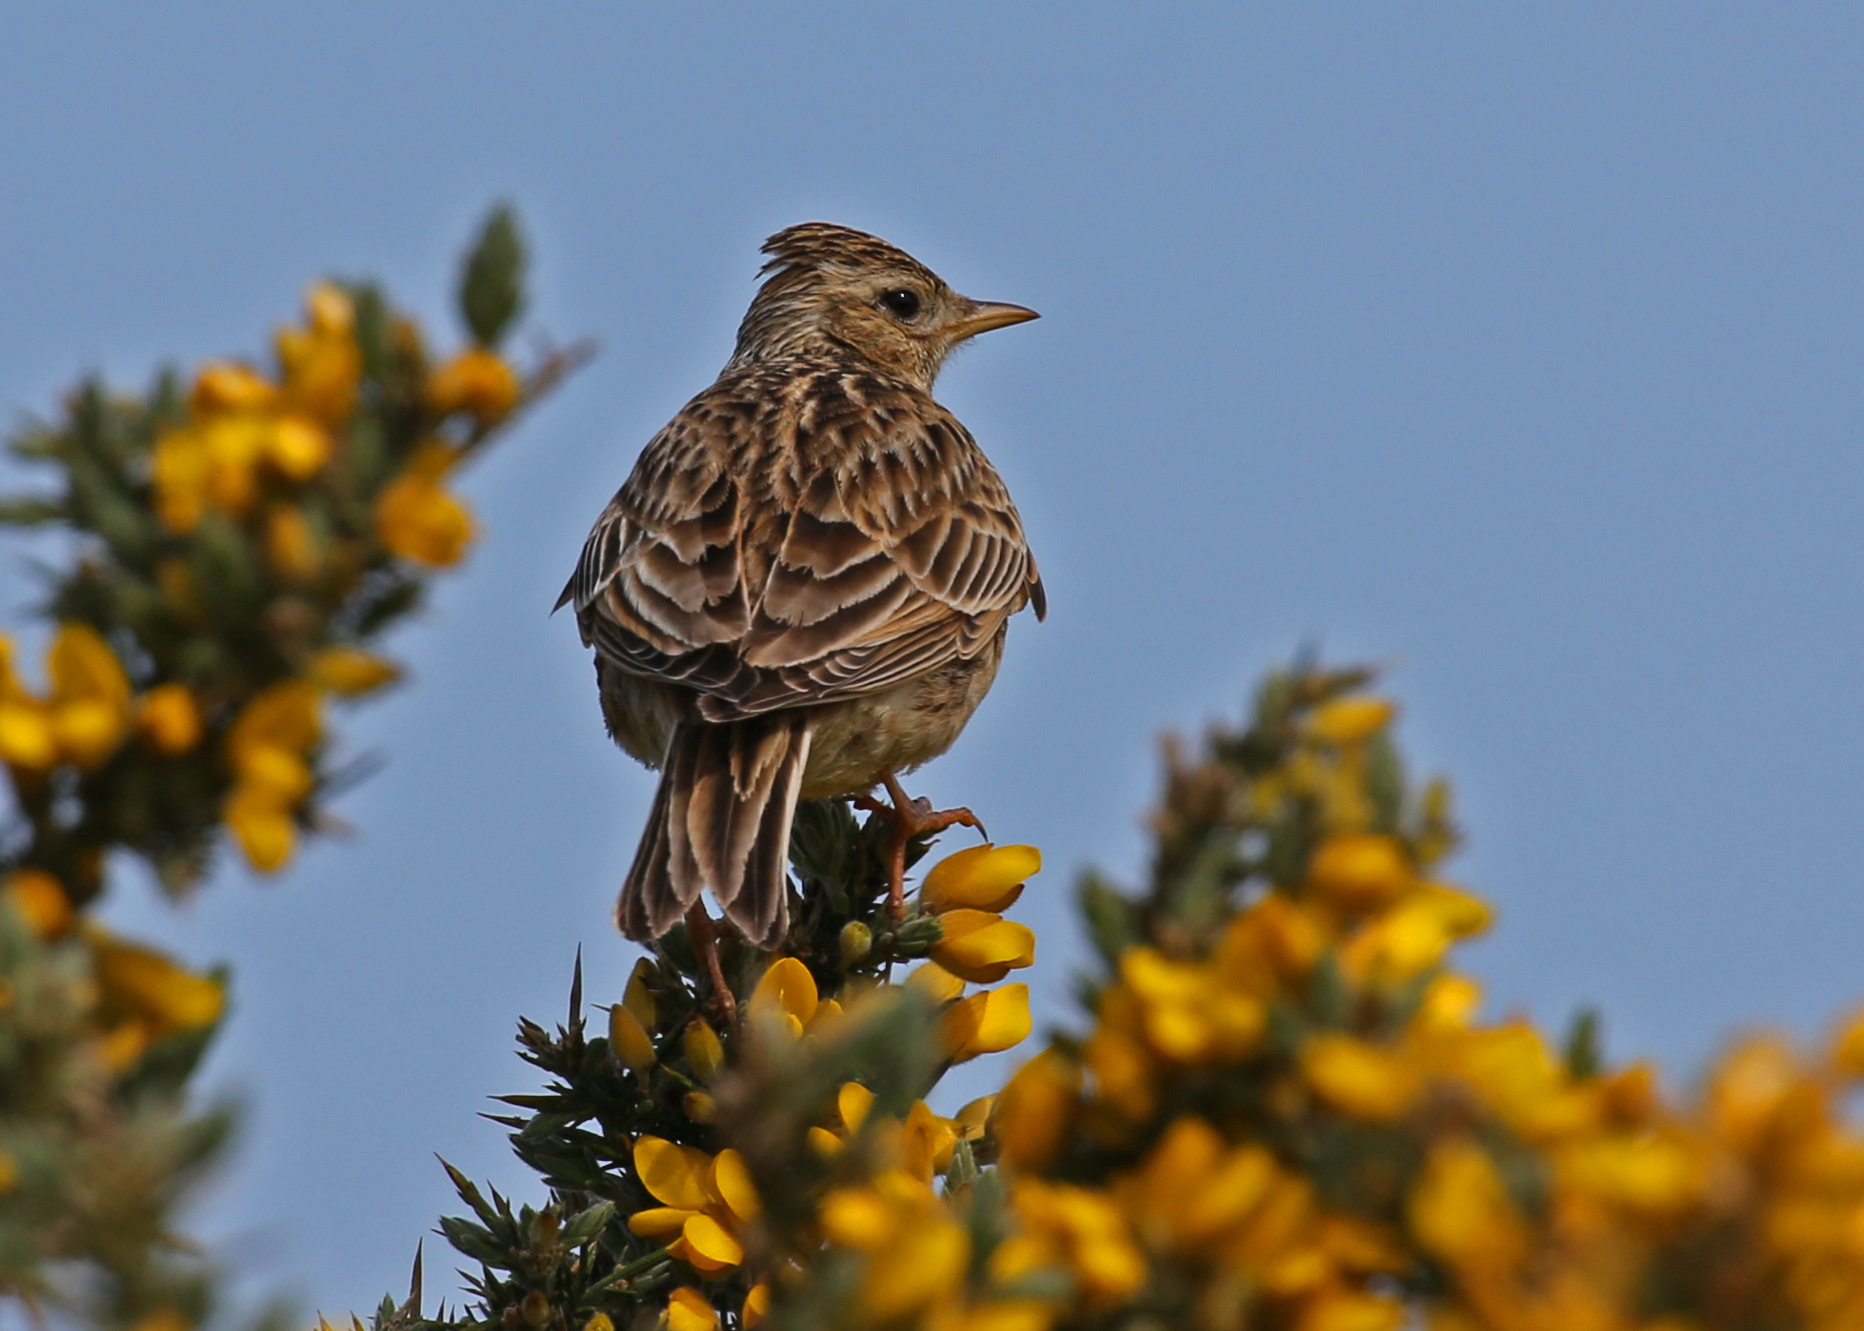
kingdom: Animalia
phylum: Chordata
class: Aves
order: Passeriformes
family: Alaudidae
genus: Alauda
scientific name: Alauda arvensis
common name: Eurasian skylark
